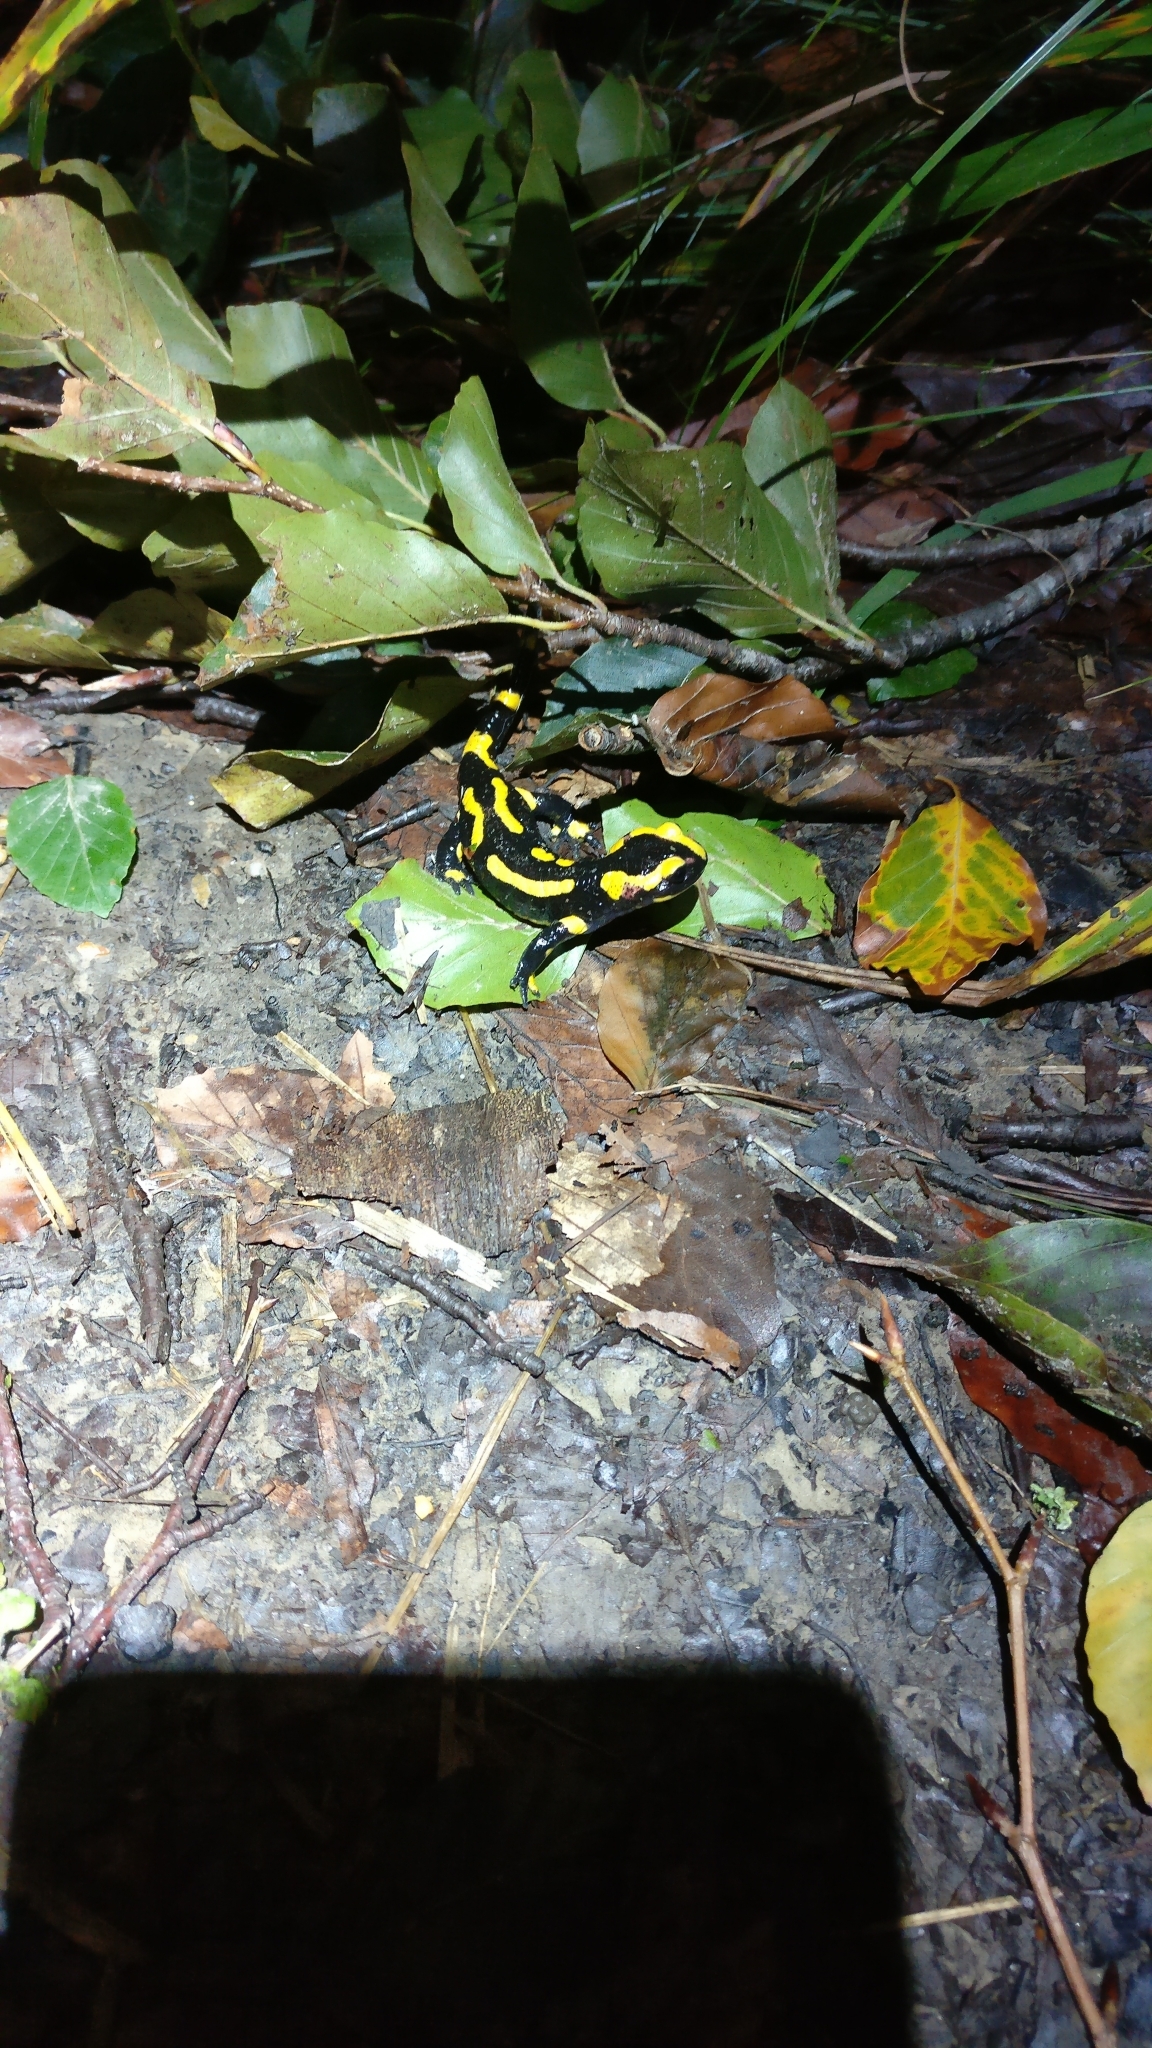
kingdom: Animalia
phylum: Chordata
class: Amphibia
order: Caudata
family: Salamandridae
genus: Salamandra
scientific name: Salamandra salamandra
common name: Fire salamander
